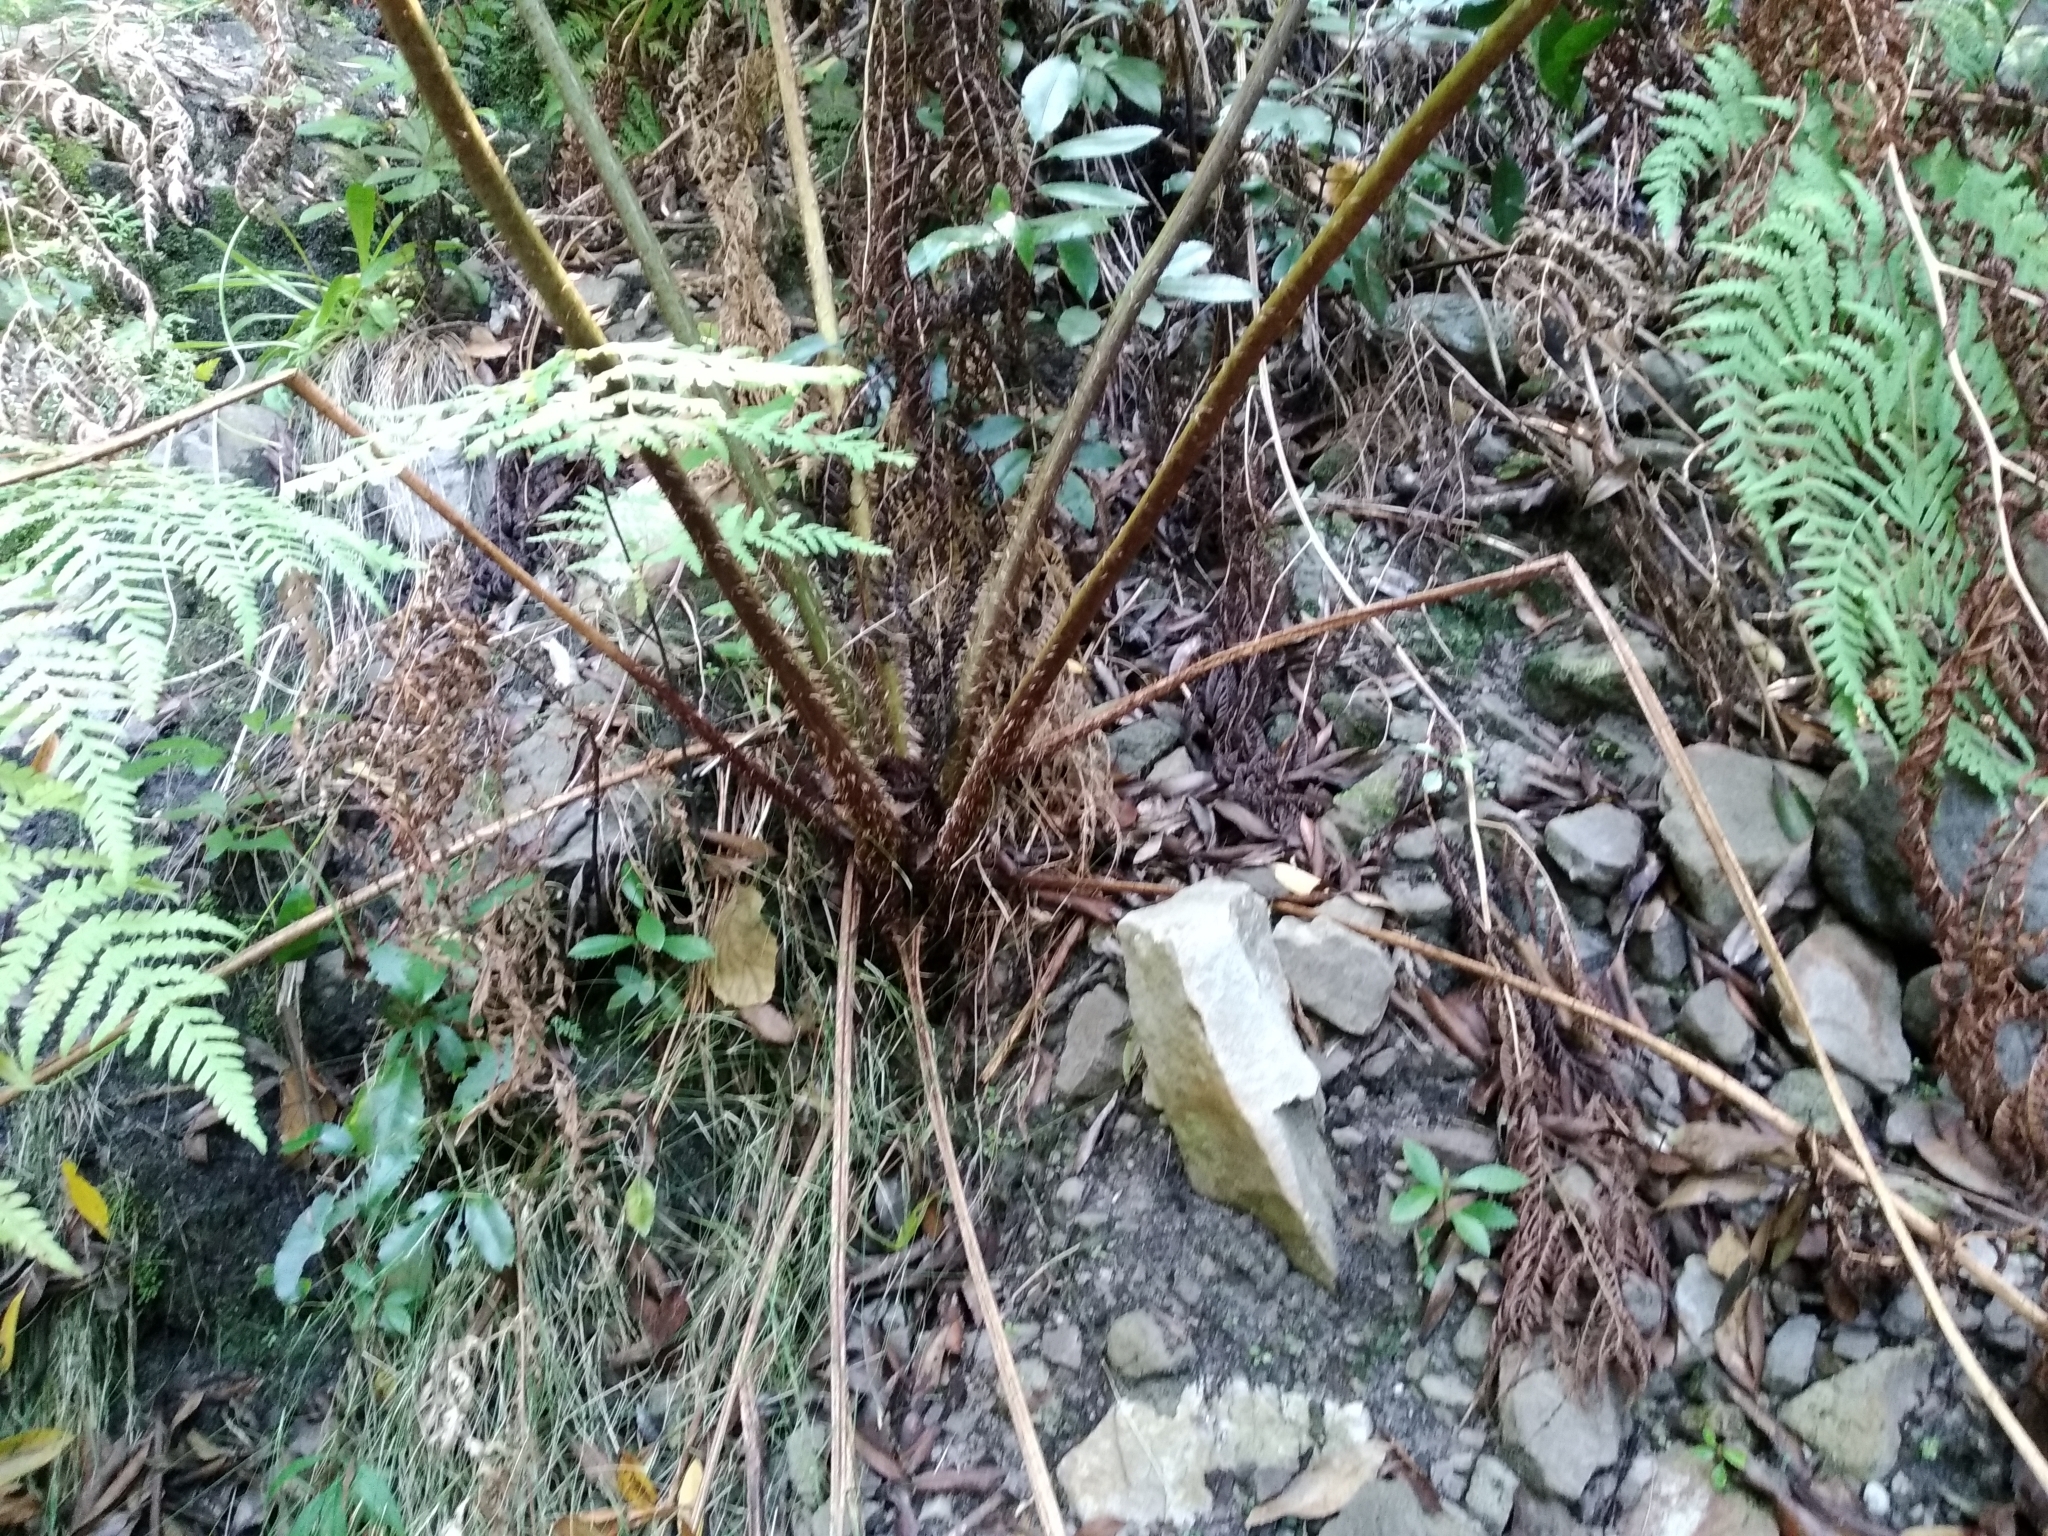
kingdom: Plantae
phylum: Tracheophyta
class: Polypodiopsida
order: Cyatheales
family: Cyatheaceae
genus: Sphaeropteris
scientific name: Sphaeropteris cooperi
